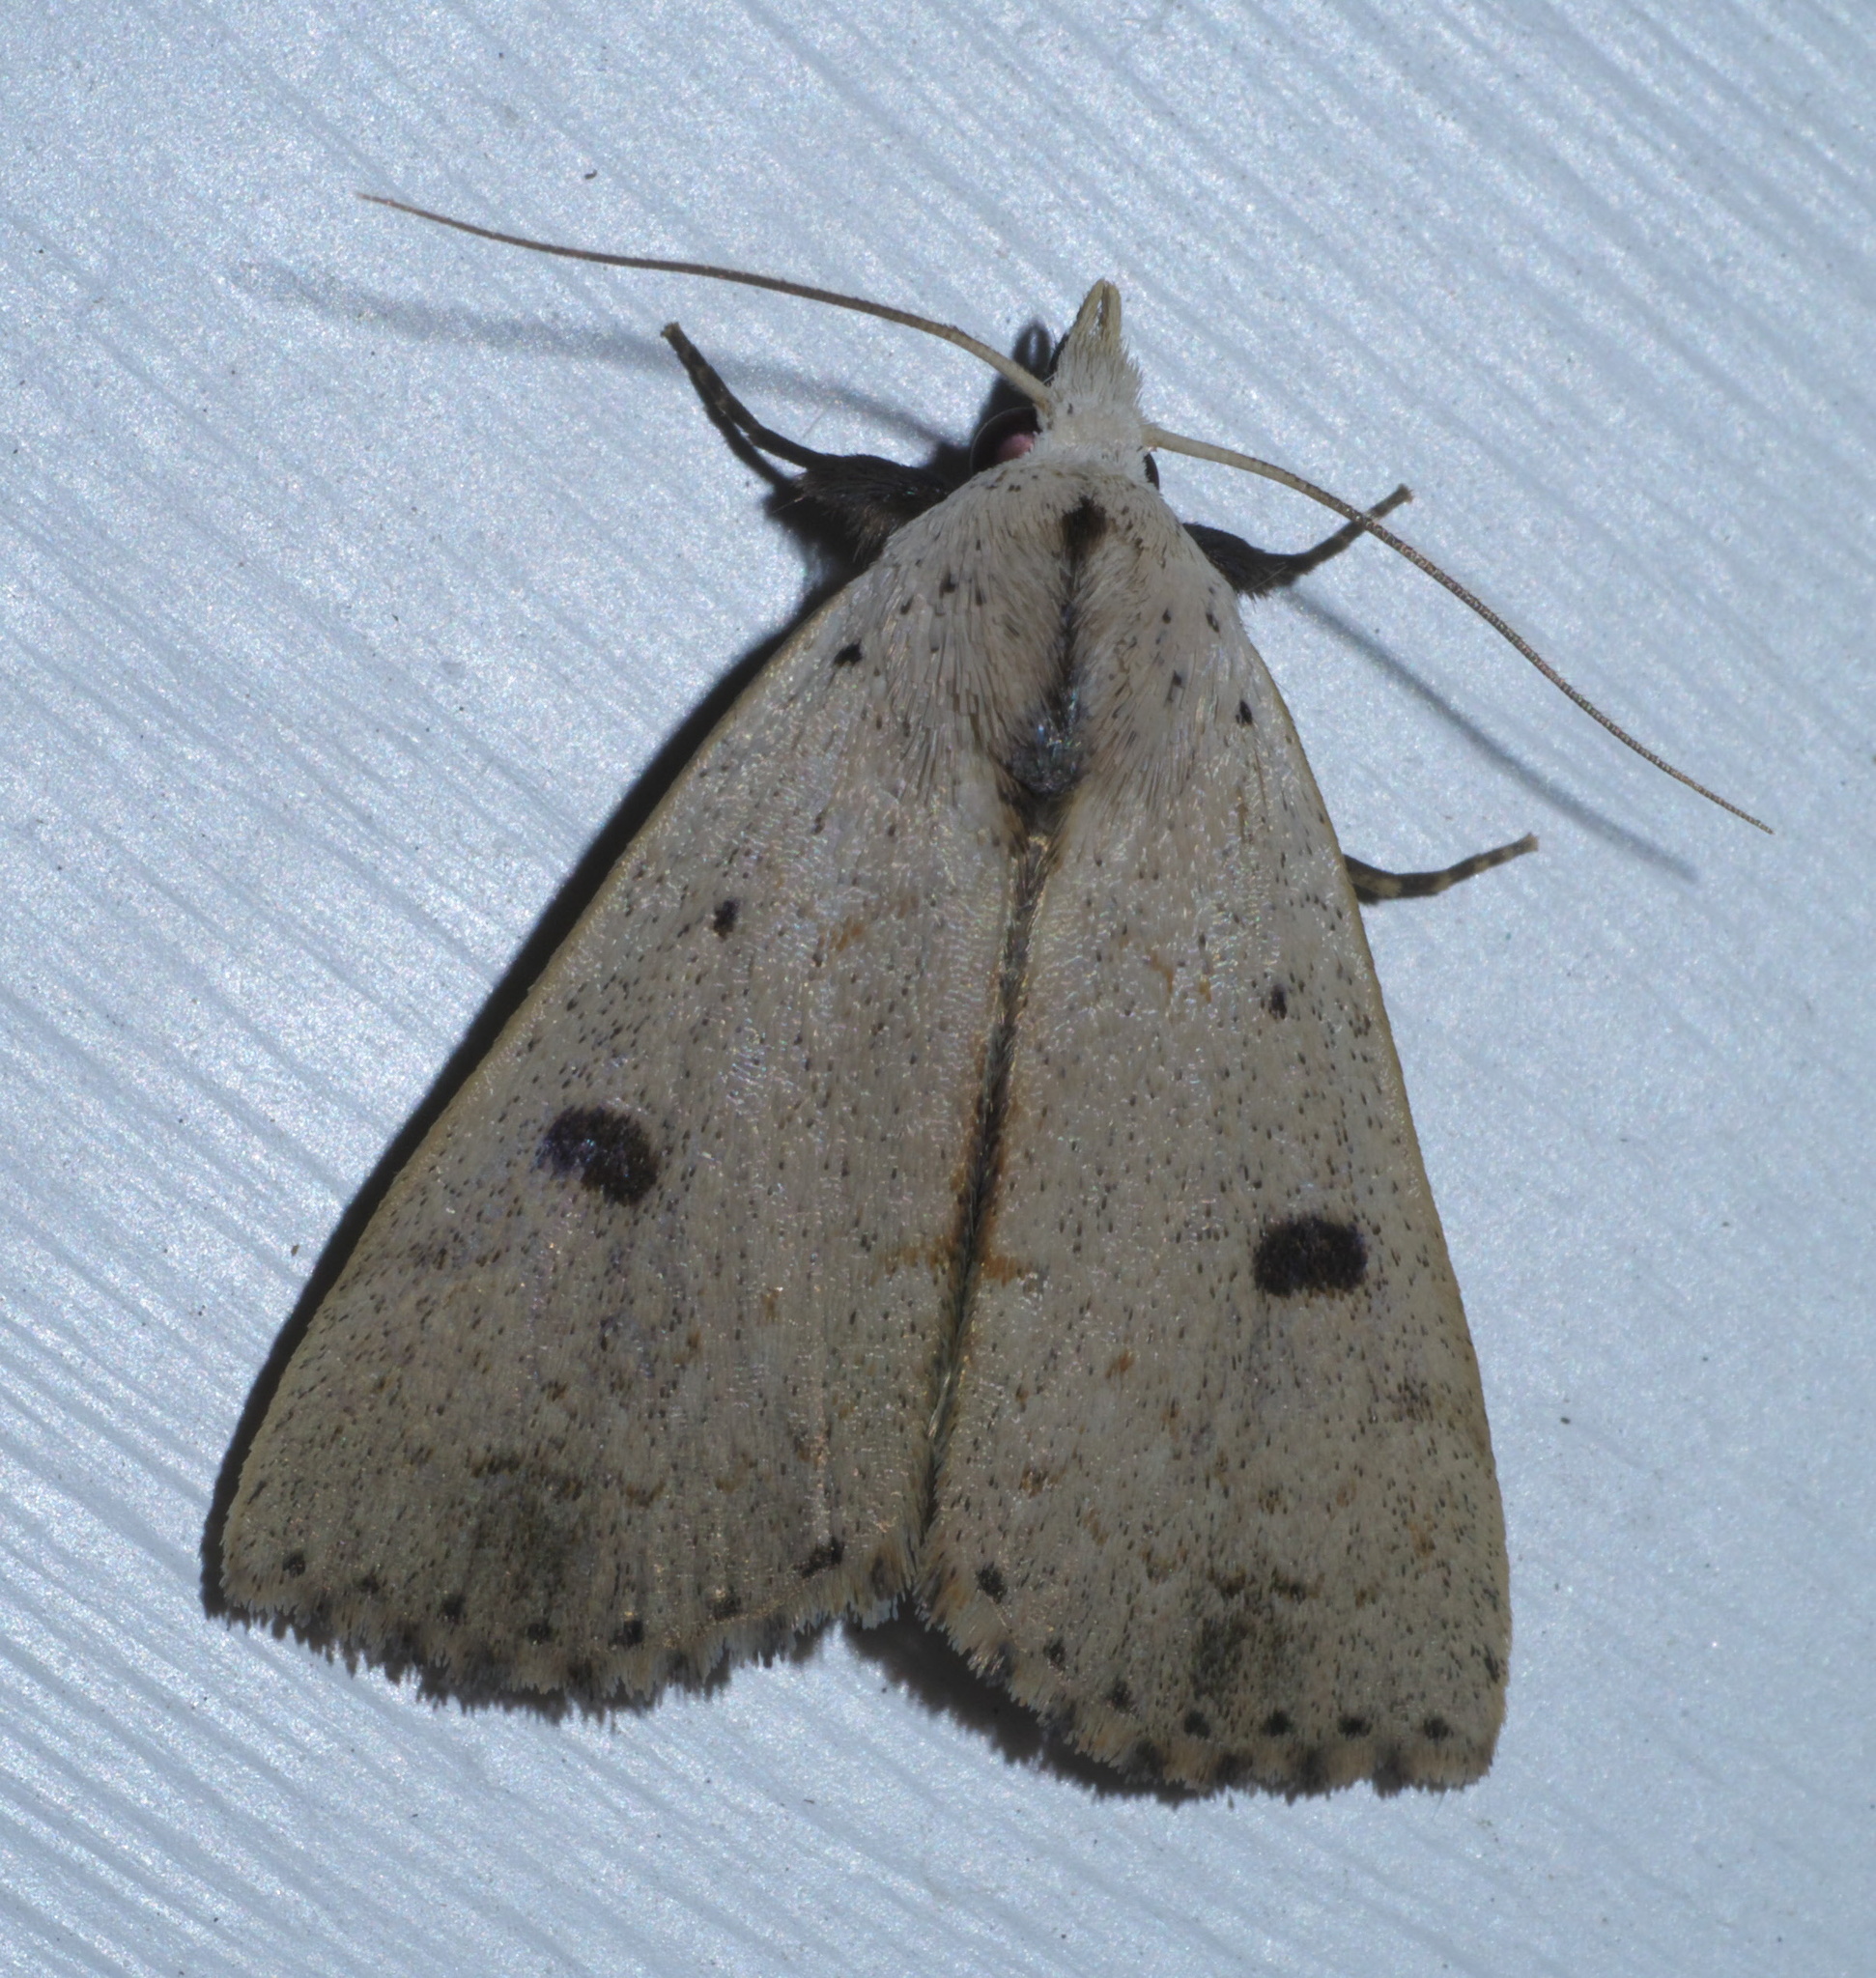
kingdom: Animalia
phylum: Arthropoda
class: Insecta
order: Lepidoptera
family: Erebidae
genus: Scolecocampa
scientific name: Scolecocampa liburna
